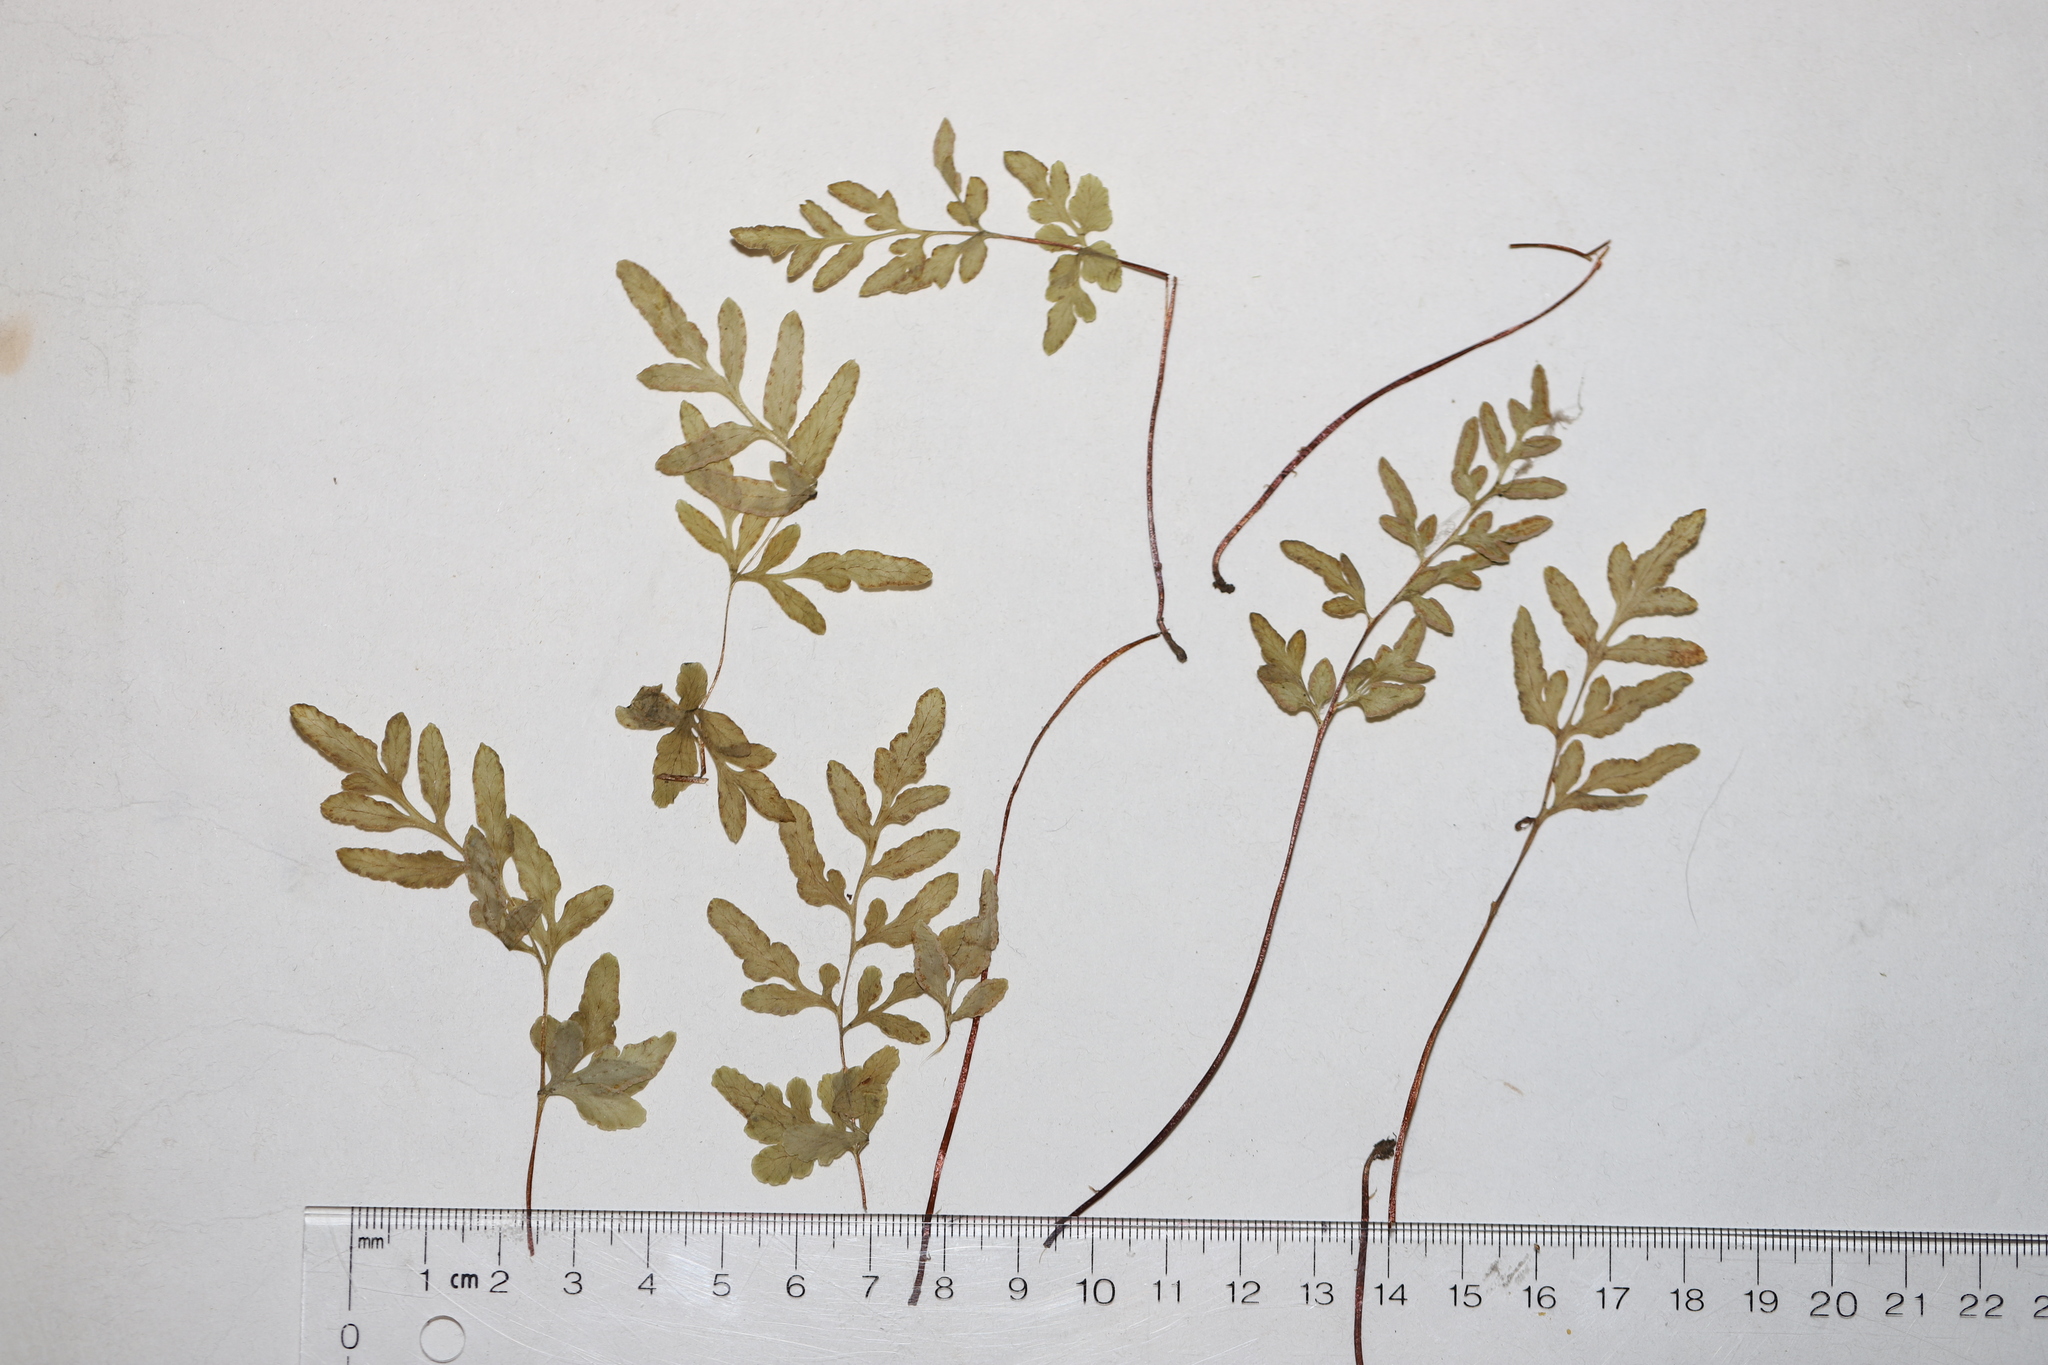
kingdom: Plantae
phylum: Tracheophyta
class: Polypodiopsida
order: Polypodiales
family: Pteridaceae
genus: Cryptogramma
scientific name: Cryptogramma stelleri
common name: Cliff-brake
